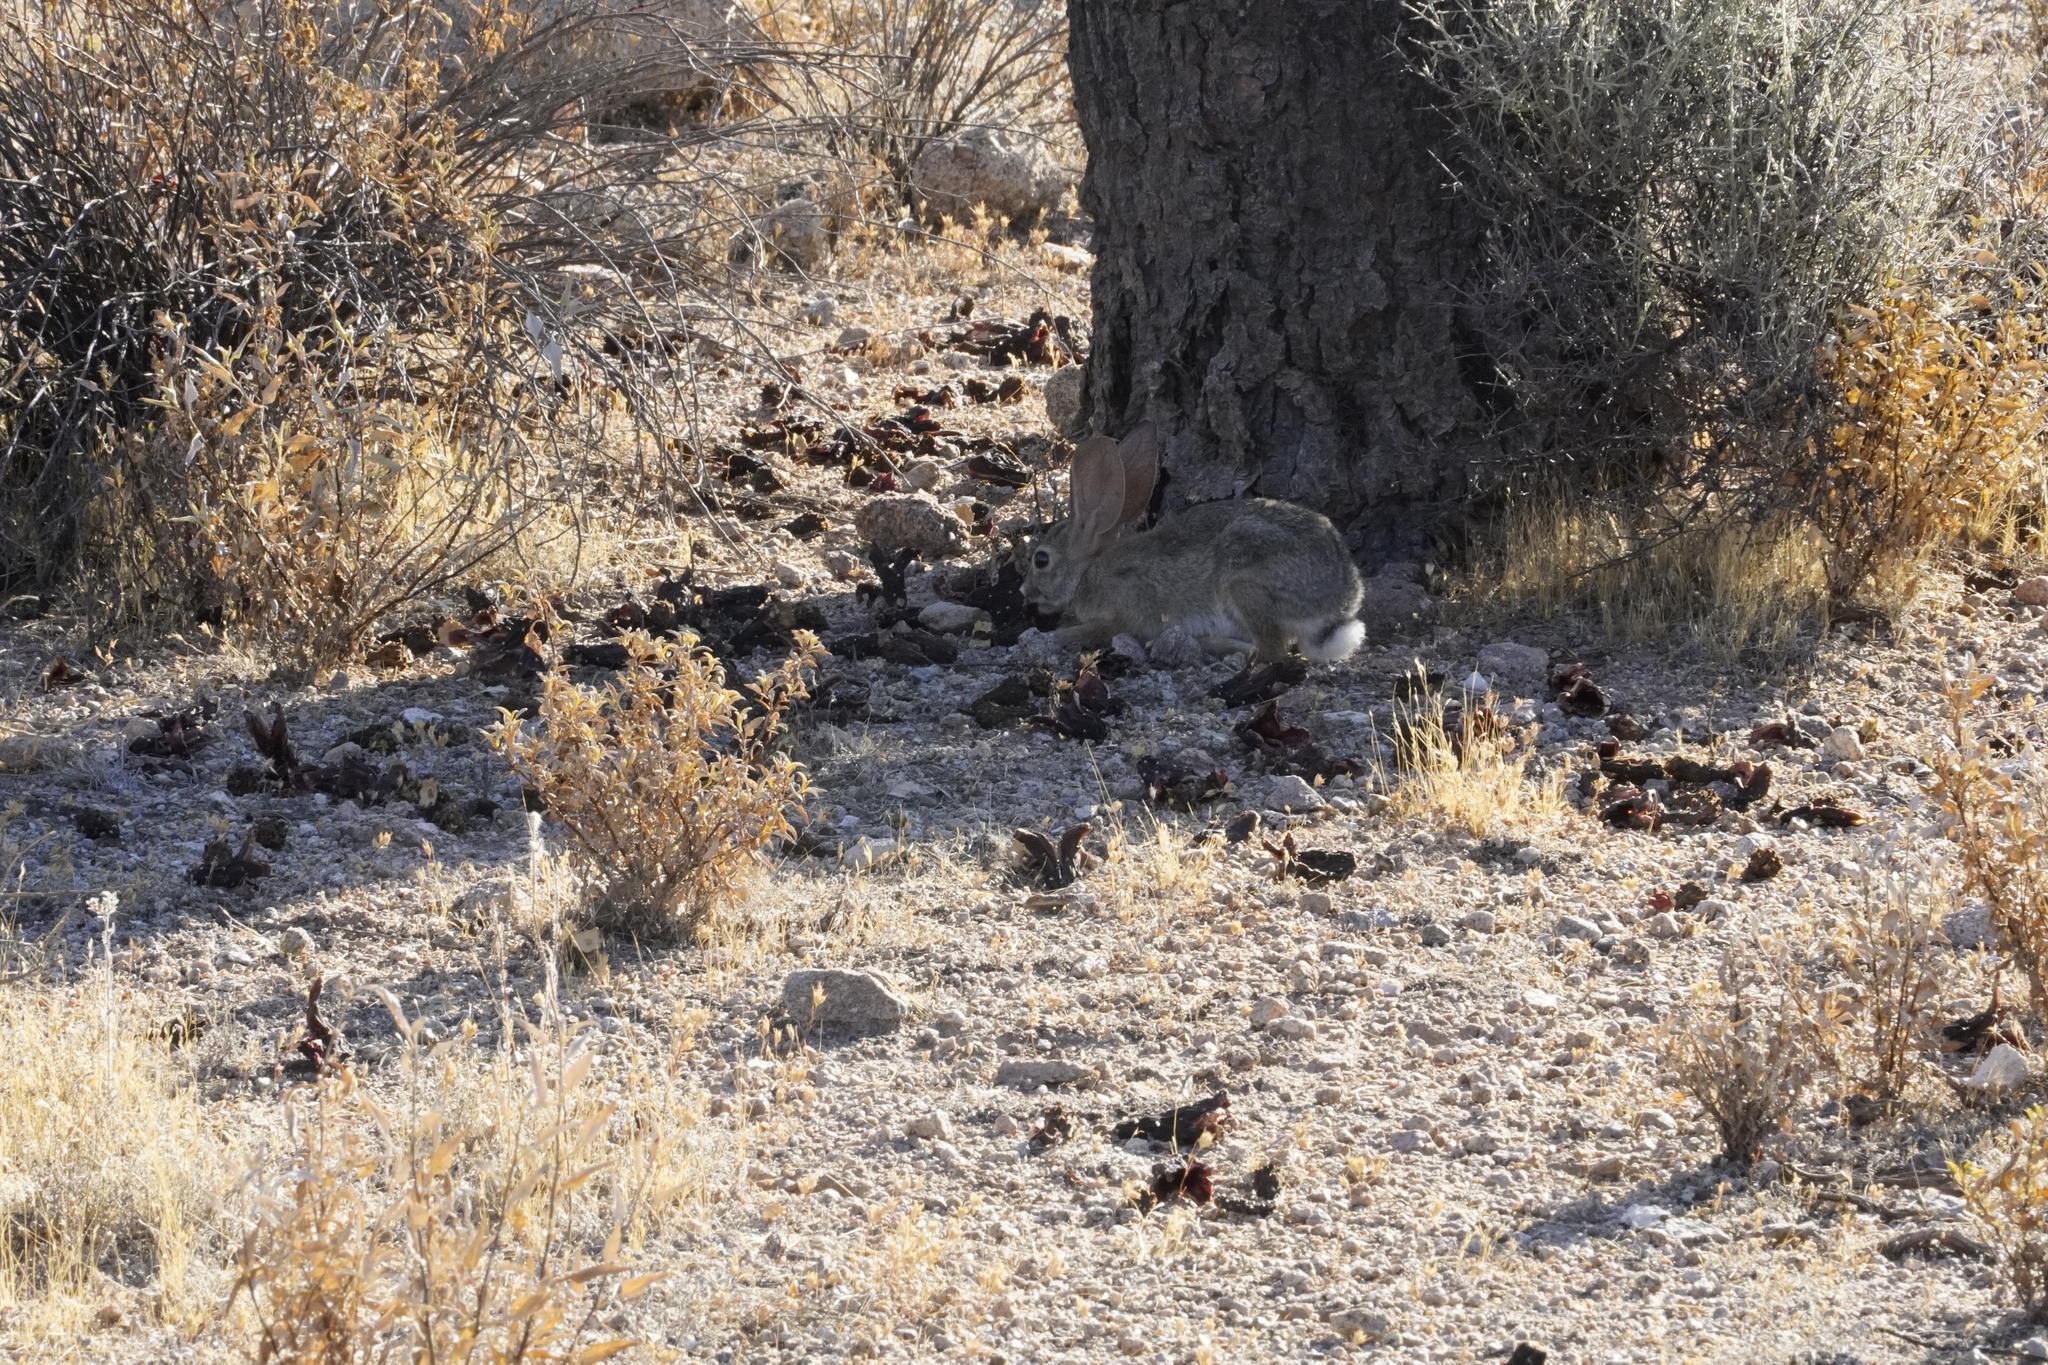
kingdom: Animalia
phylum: Chordata
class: Mammalia
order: Lagomorpha
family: Leporidae
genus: Sylvilagus
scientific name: Sylvilagus audubonii
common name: Desert cottontail
